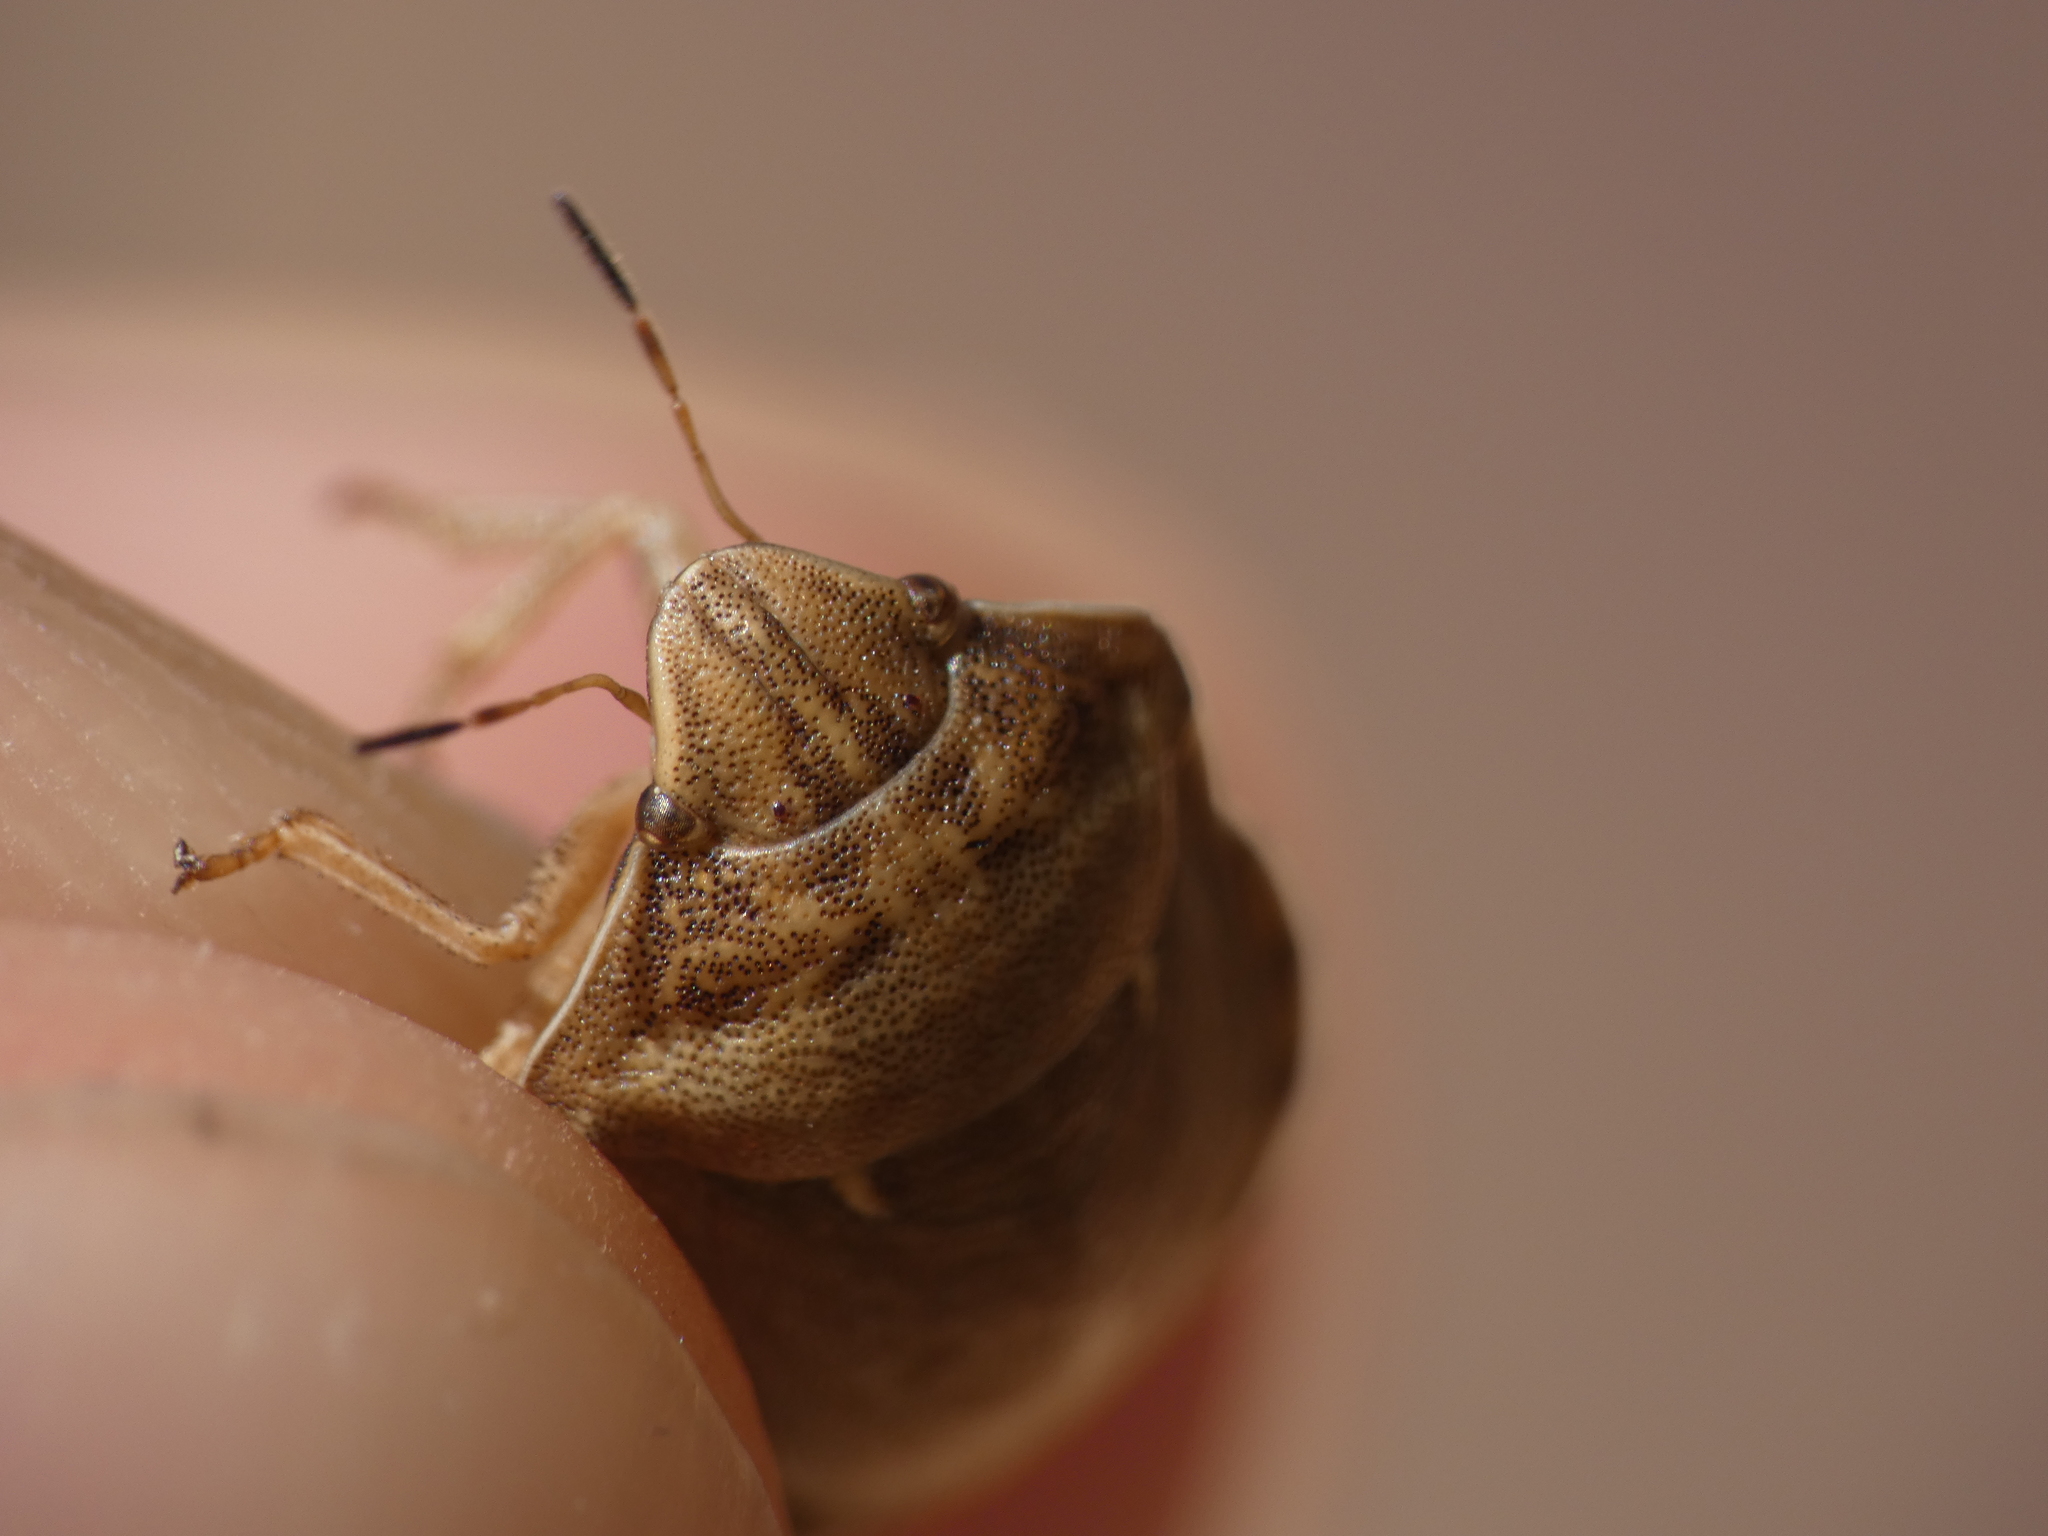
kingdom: Animalia
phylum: Arthropoda
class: Insecta
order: Hemiptera
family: Scutelleridae
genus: Eurygaster
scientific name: Eurygaster maura
